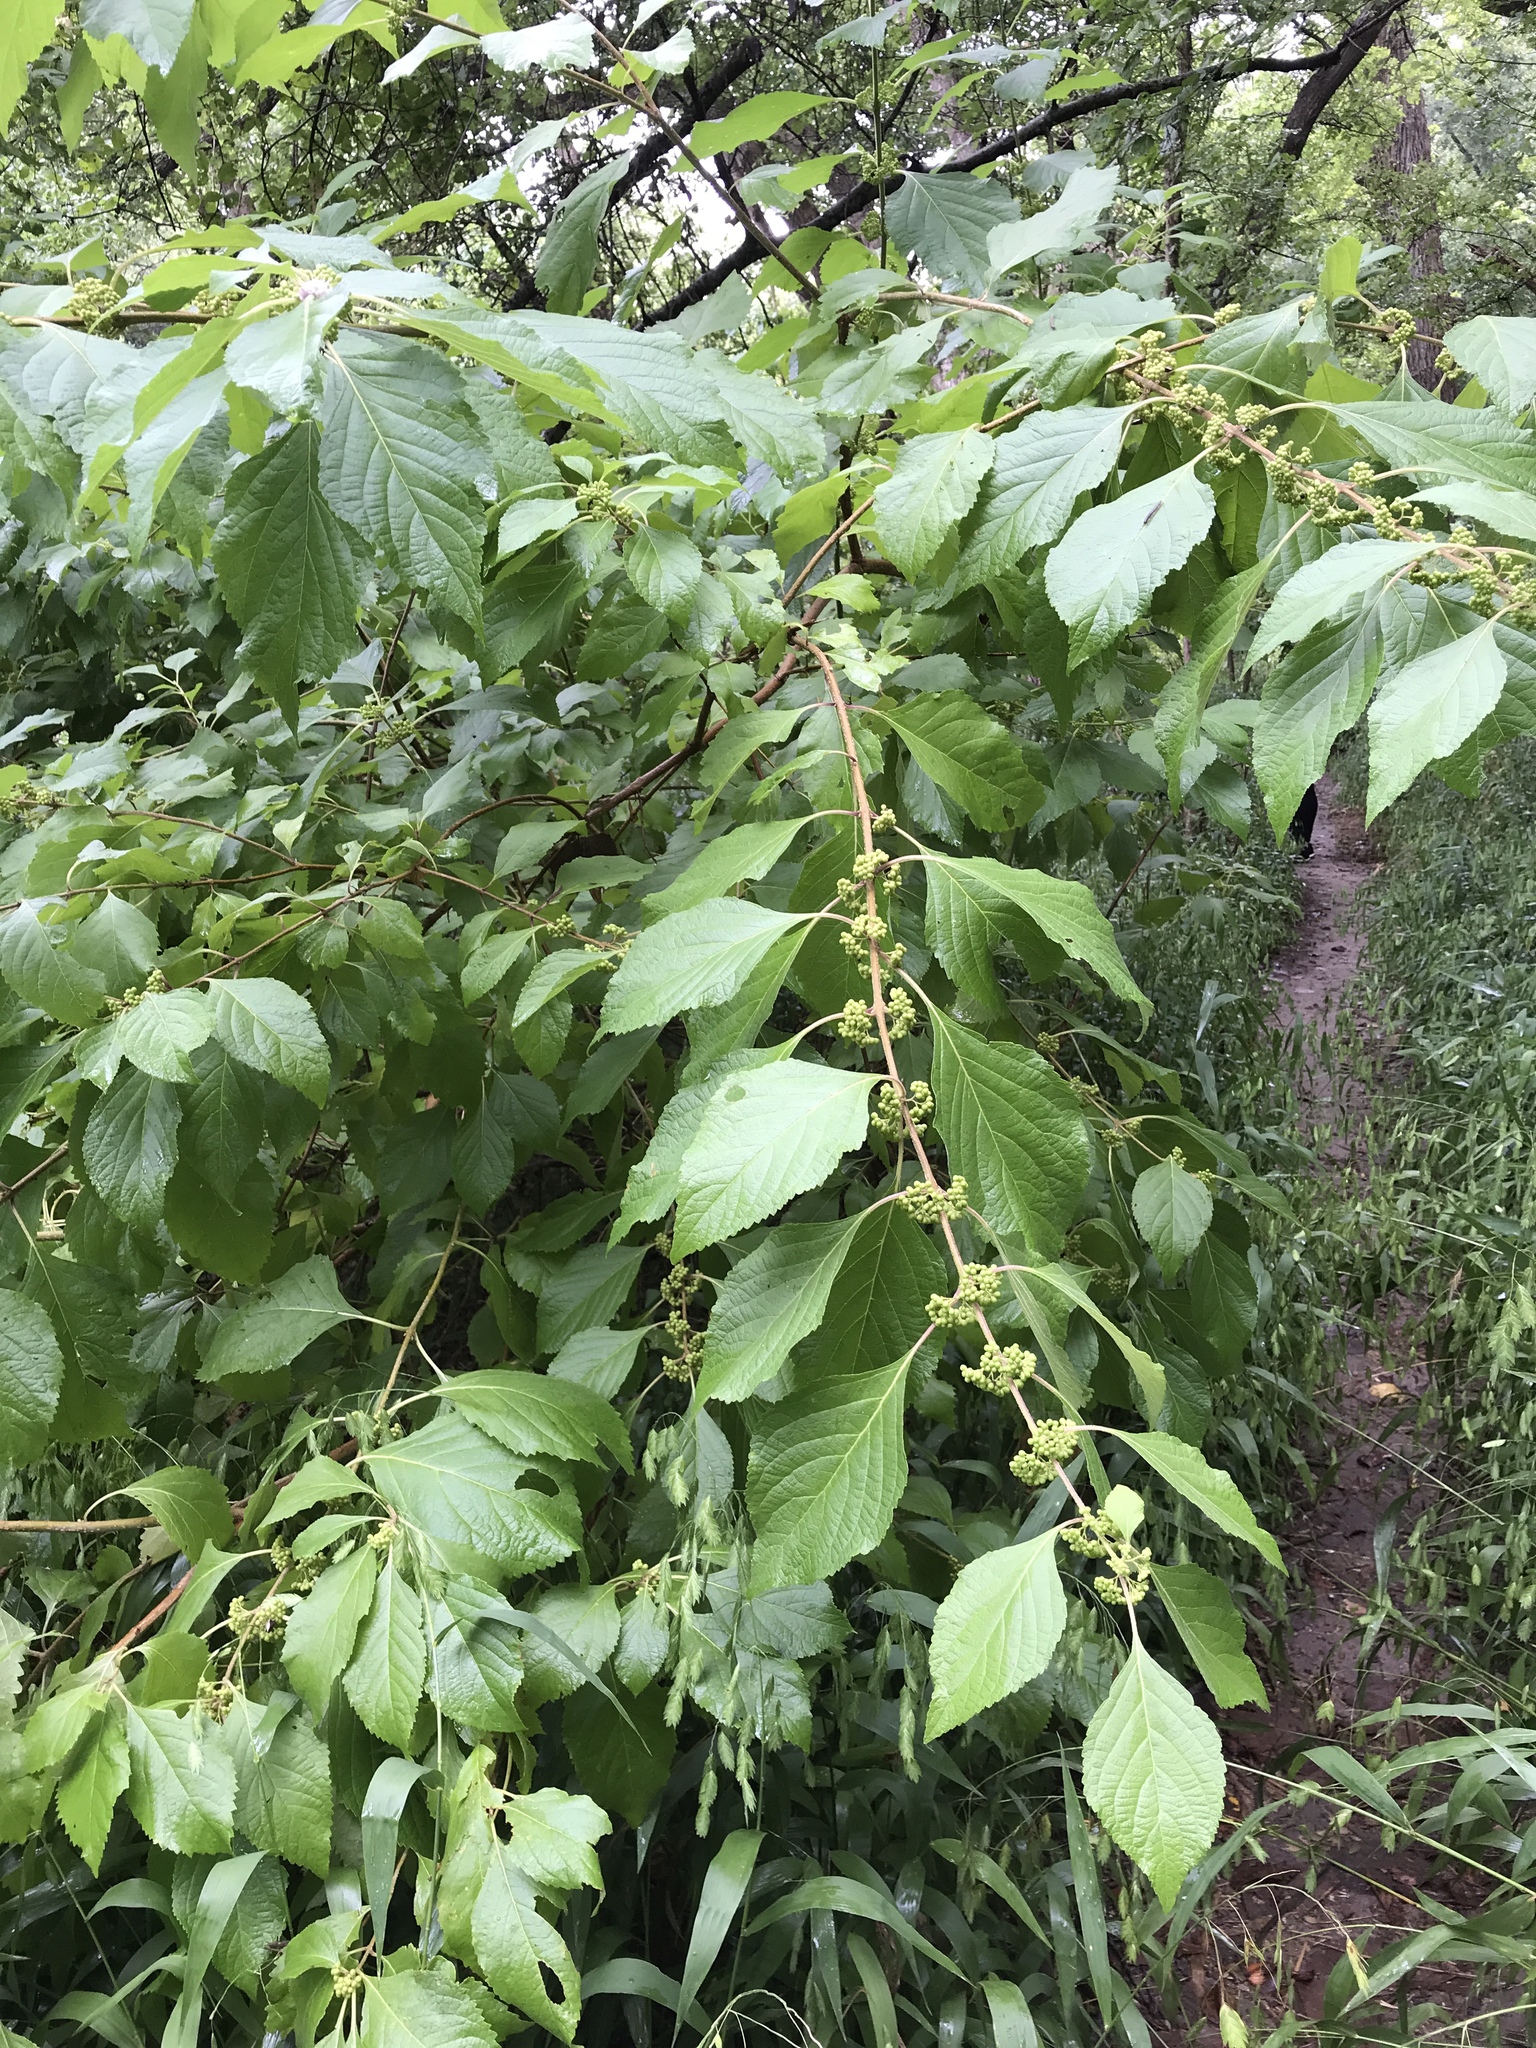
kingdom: Plantae
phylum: Tracheophyta
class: Magnoliopsida
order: Lamiales
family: Lamiaceae
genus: Callicarpa
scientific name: Callicarpa americana
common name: American beautyberry
